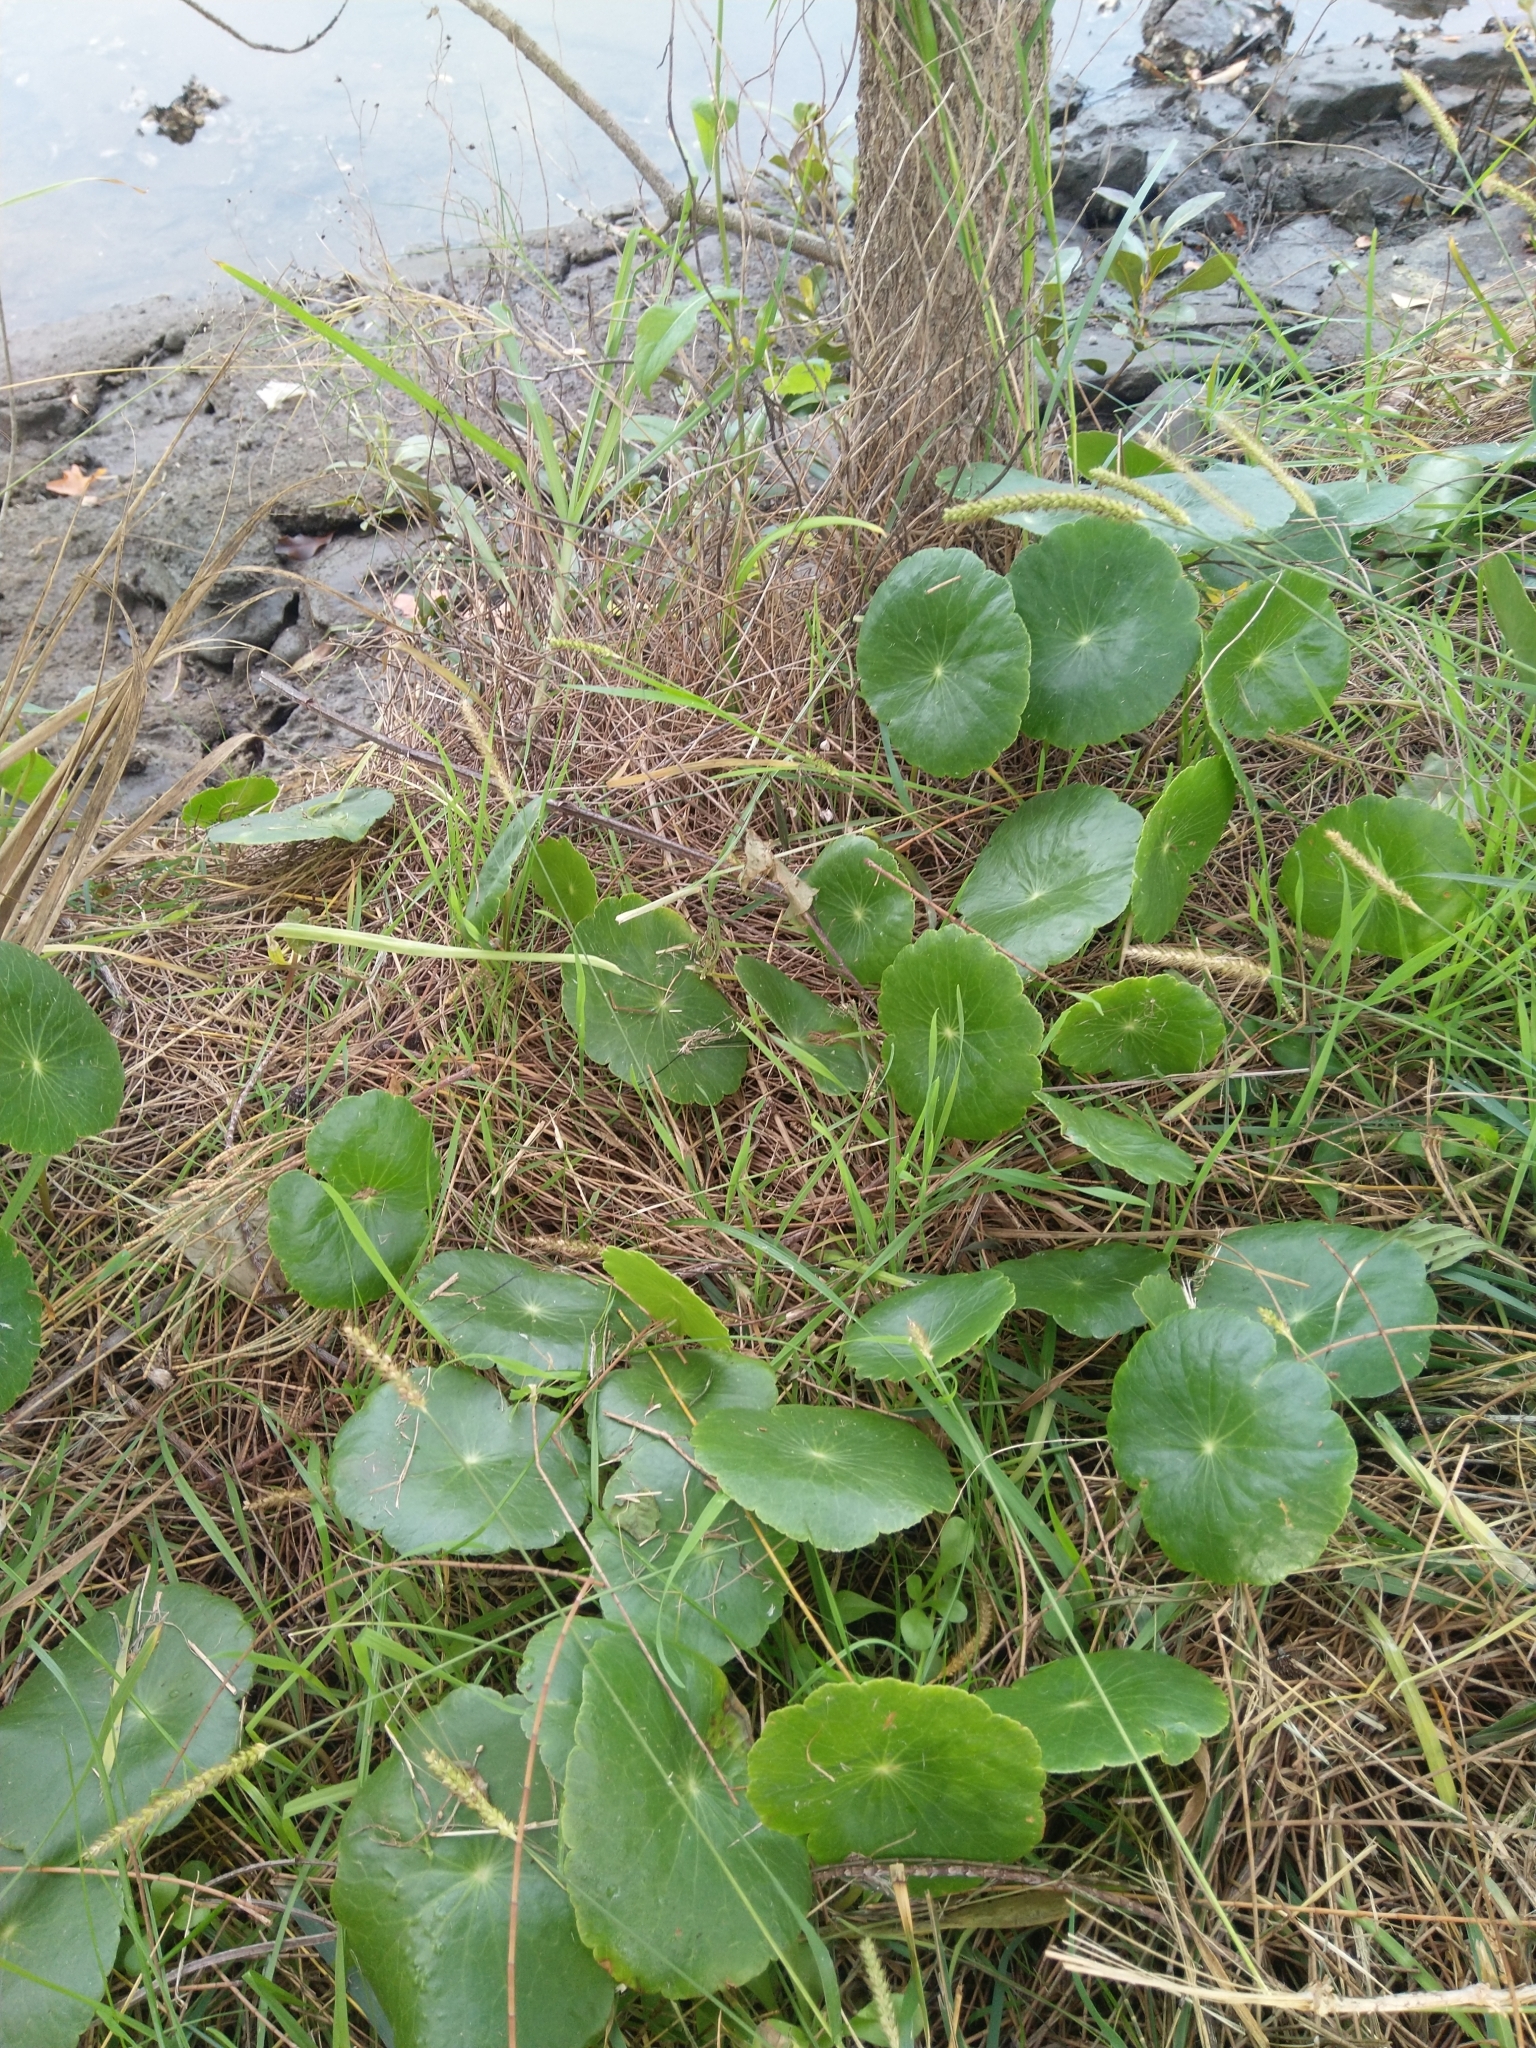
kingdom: Plantae
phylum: Tracheophyta
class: Magnoliopsida
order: Apiales
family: Araliaceae
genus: Hydrocotyle
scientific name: Hydrocotyle bonariensis
